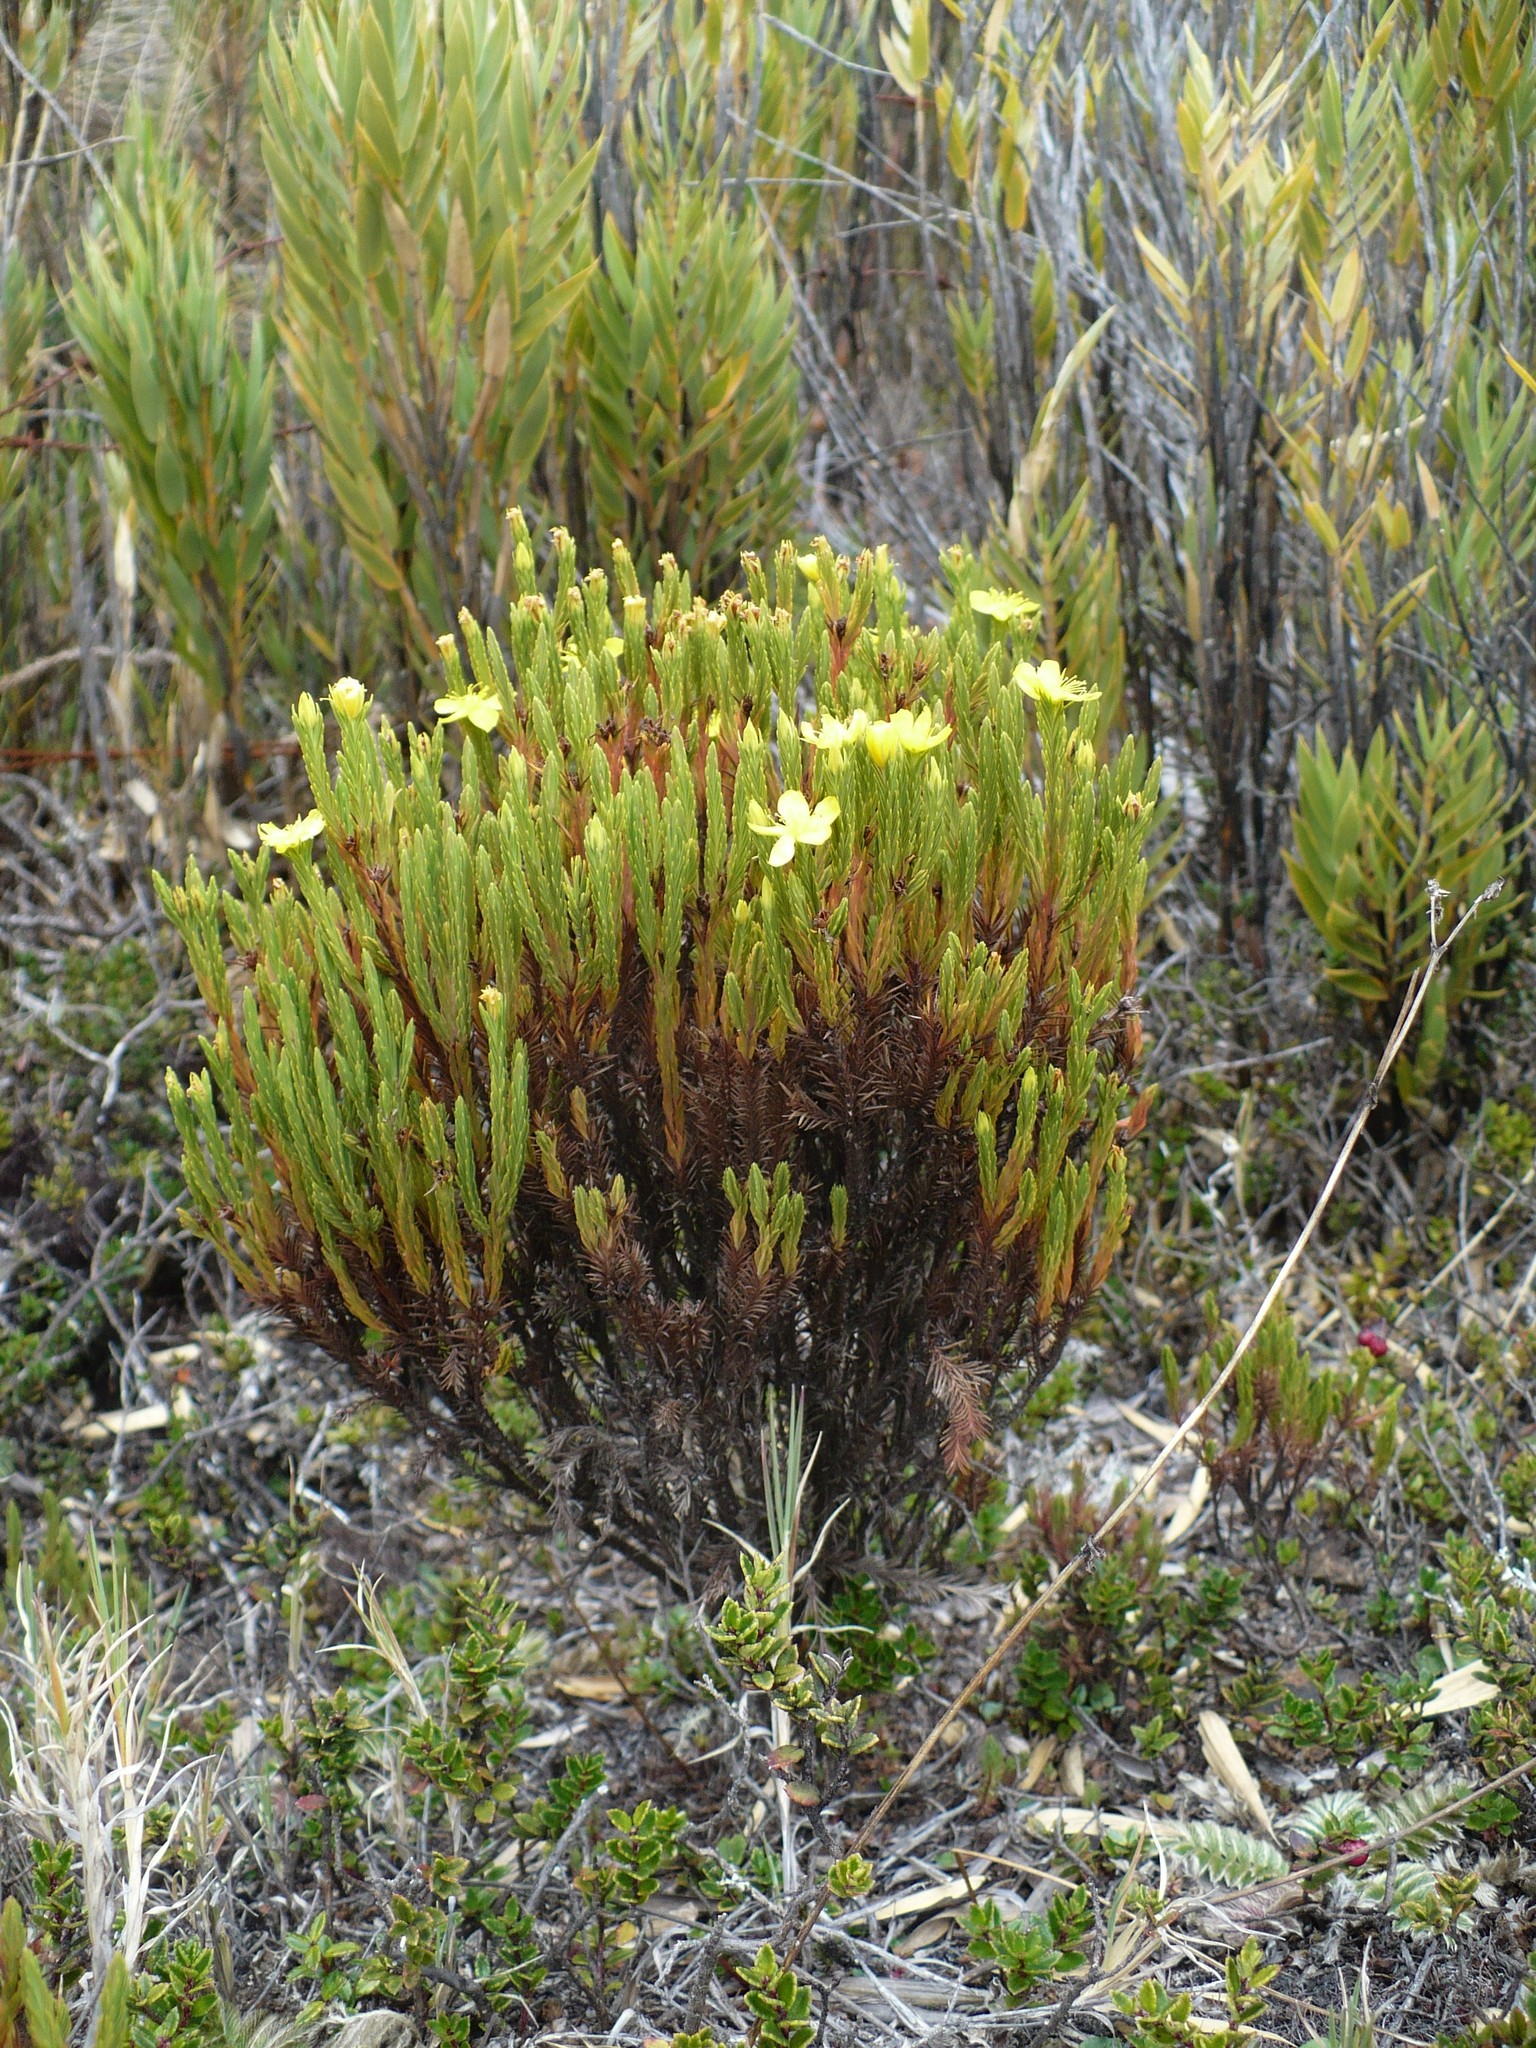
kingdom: Plantae
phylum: Tracheophyta
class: Magnoliopsida
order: Malpighiales
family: Hypericaceae
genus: Hypericum
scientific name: Hypericum costaricense
